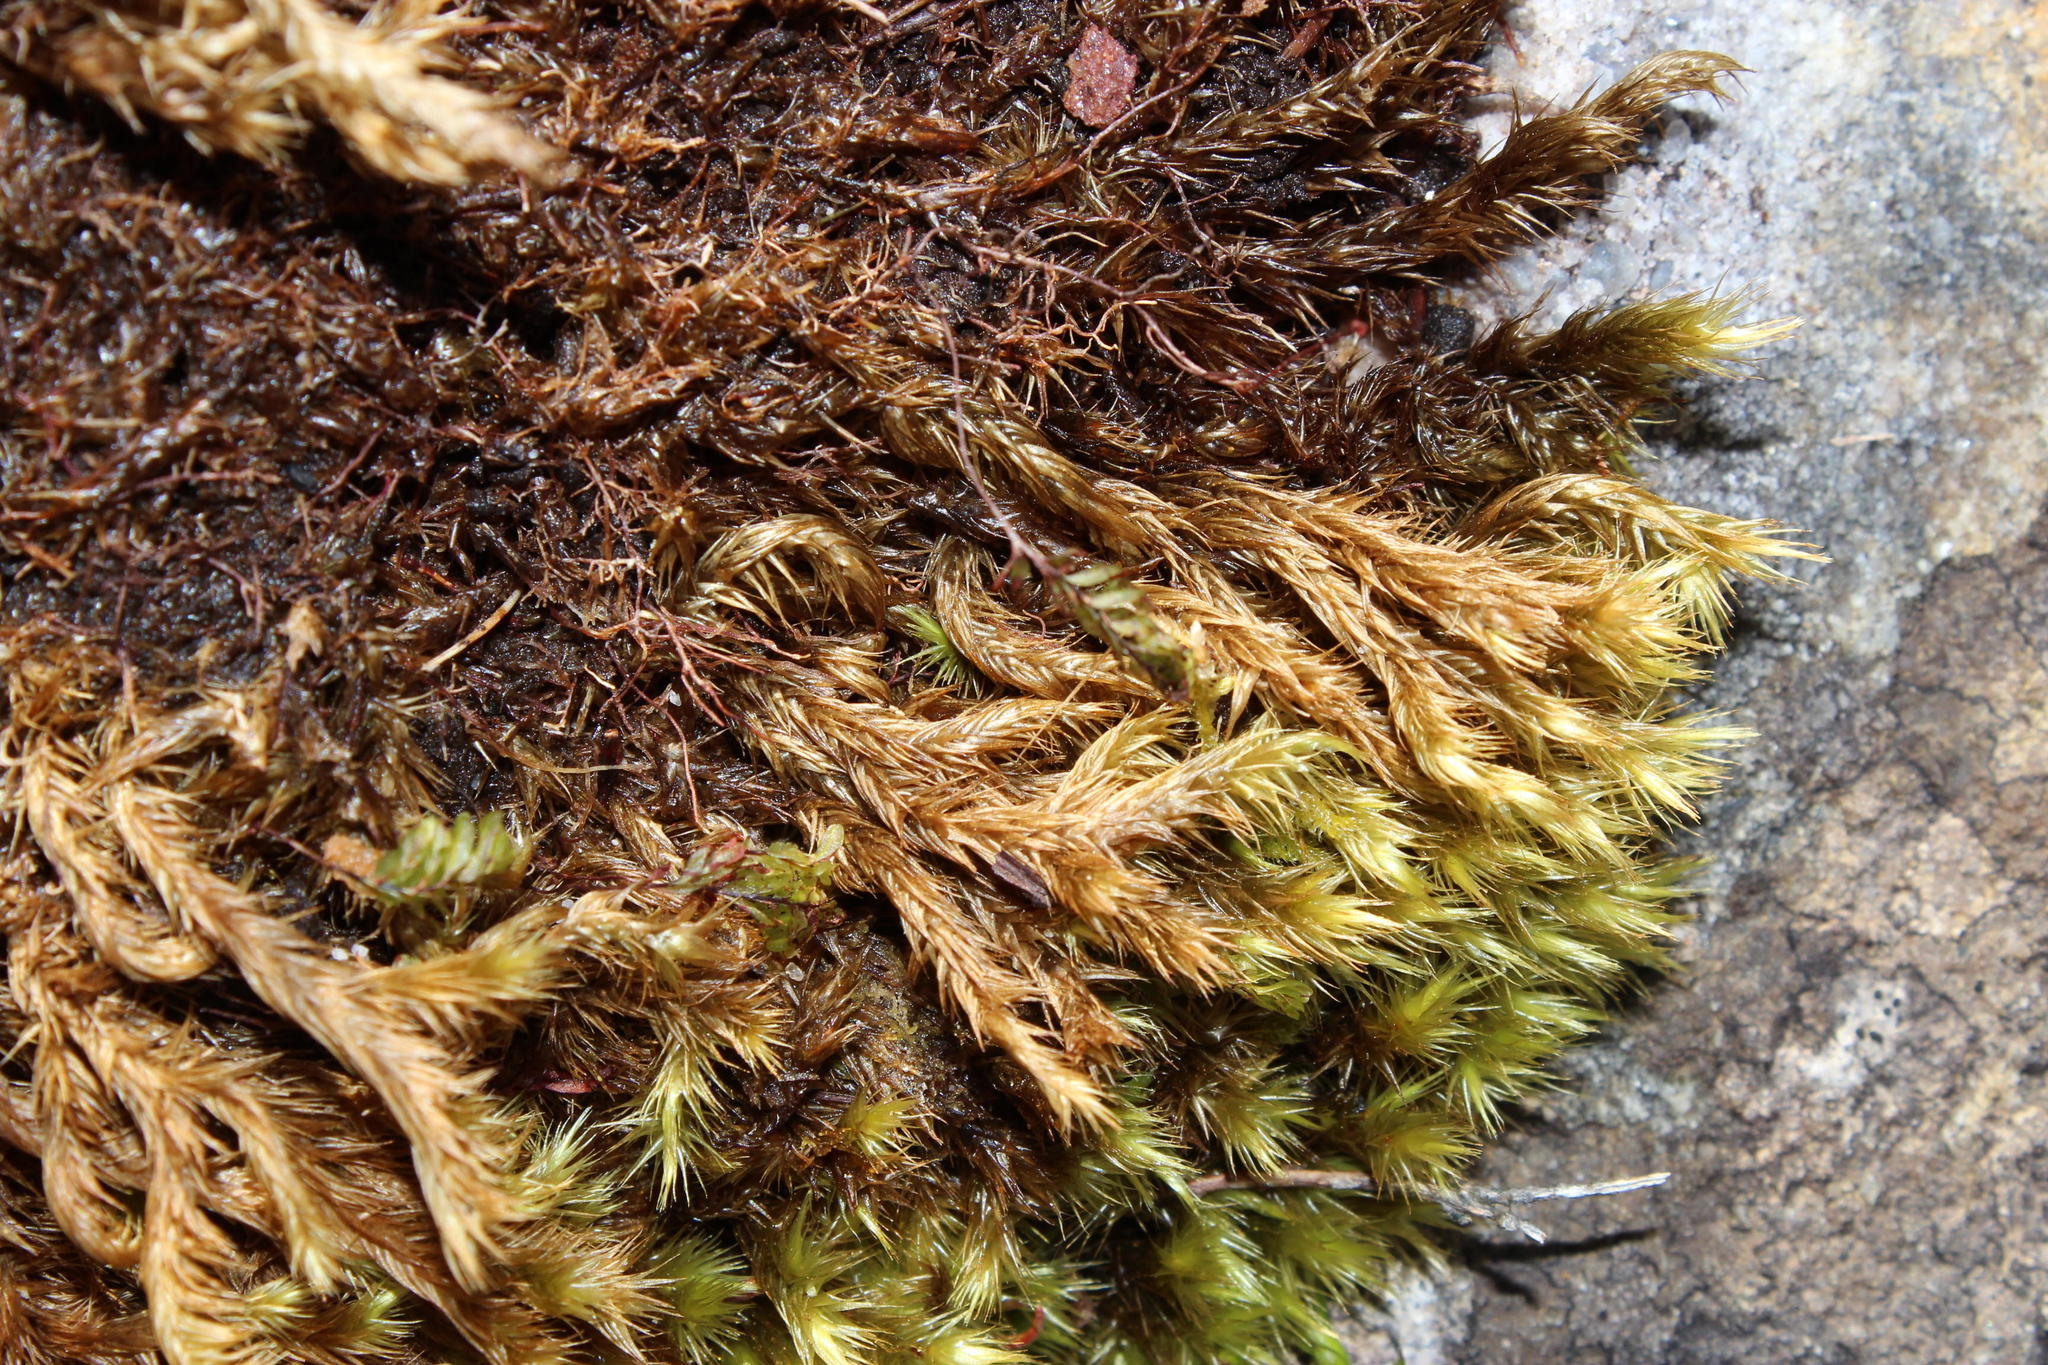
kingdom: Plantae
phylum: Bryophyta
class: Bryopsida
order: Dicranales
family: Dicranaceae
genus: Dicranoloma
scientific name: Dicranoloma billardieri
